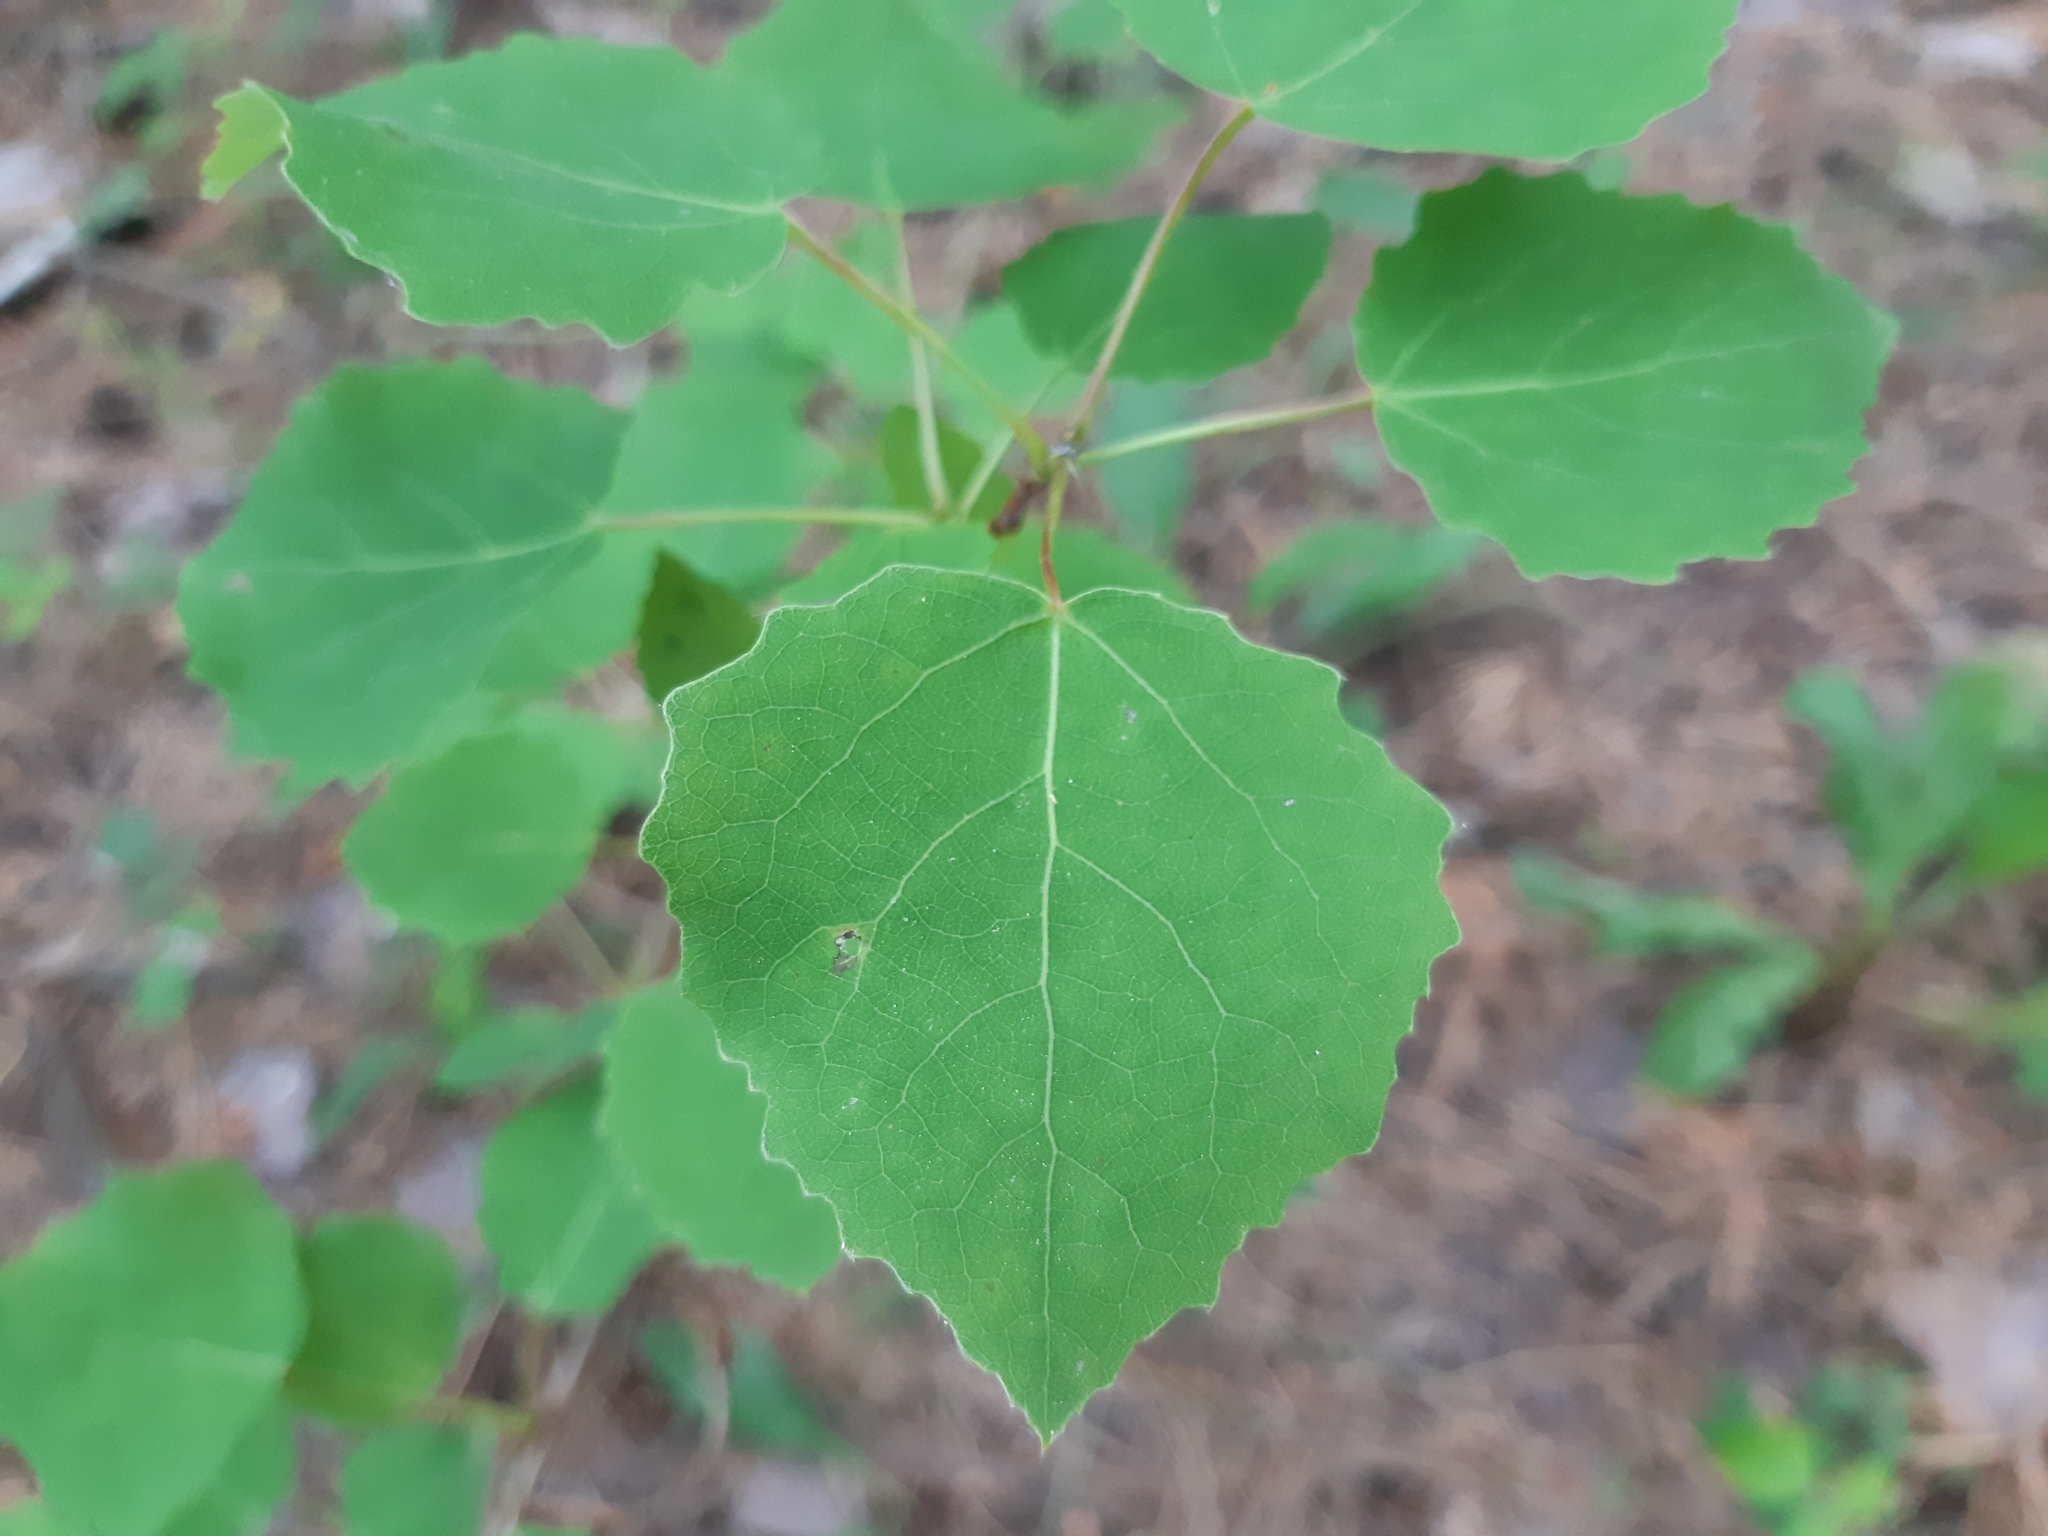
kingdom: Plantae
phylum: Tracheophyta
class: Magnoliopsida
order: Malpighiales
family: Salicaceae
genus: Populus
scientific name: Populus tremula
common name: European aspen
